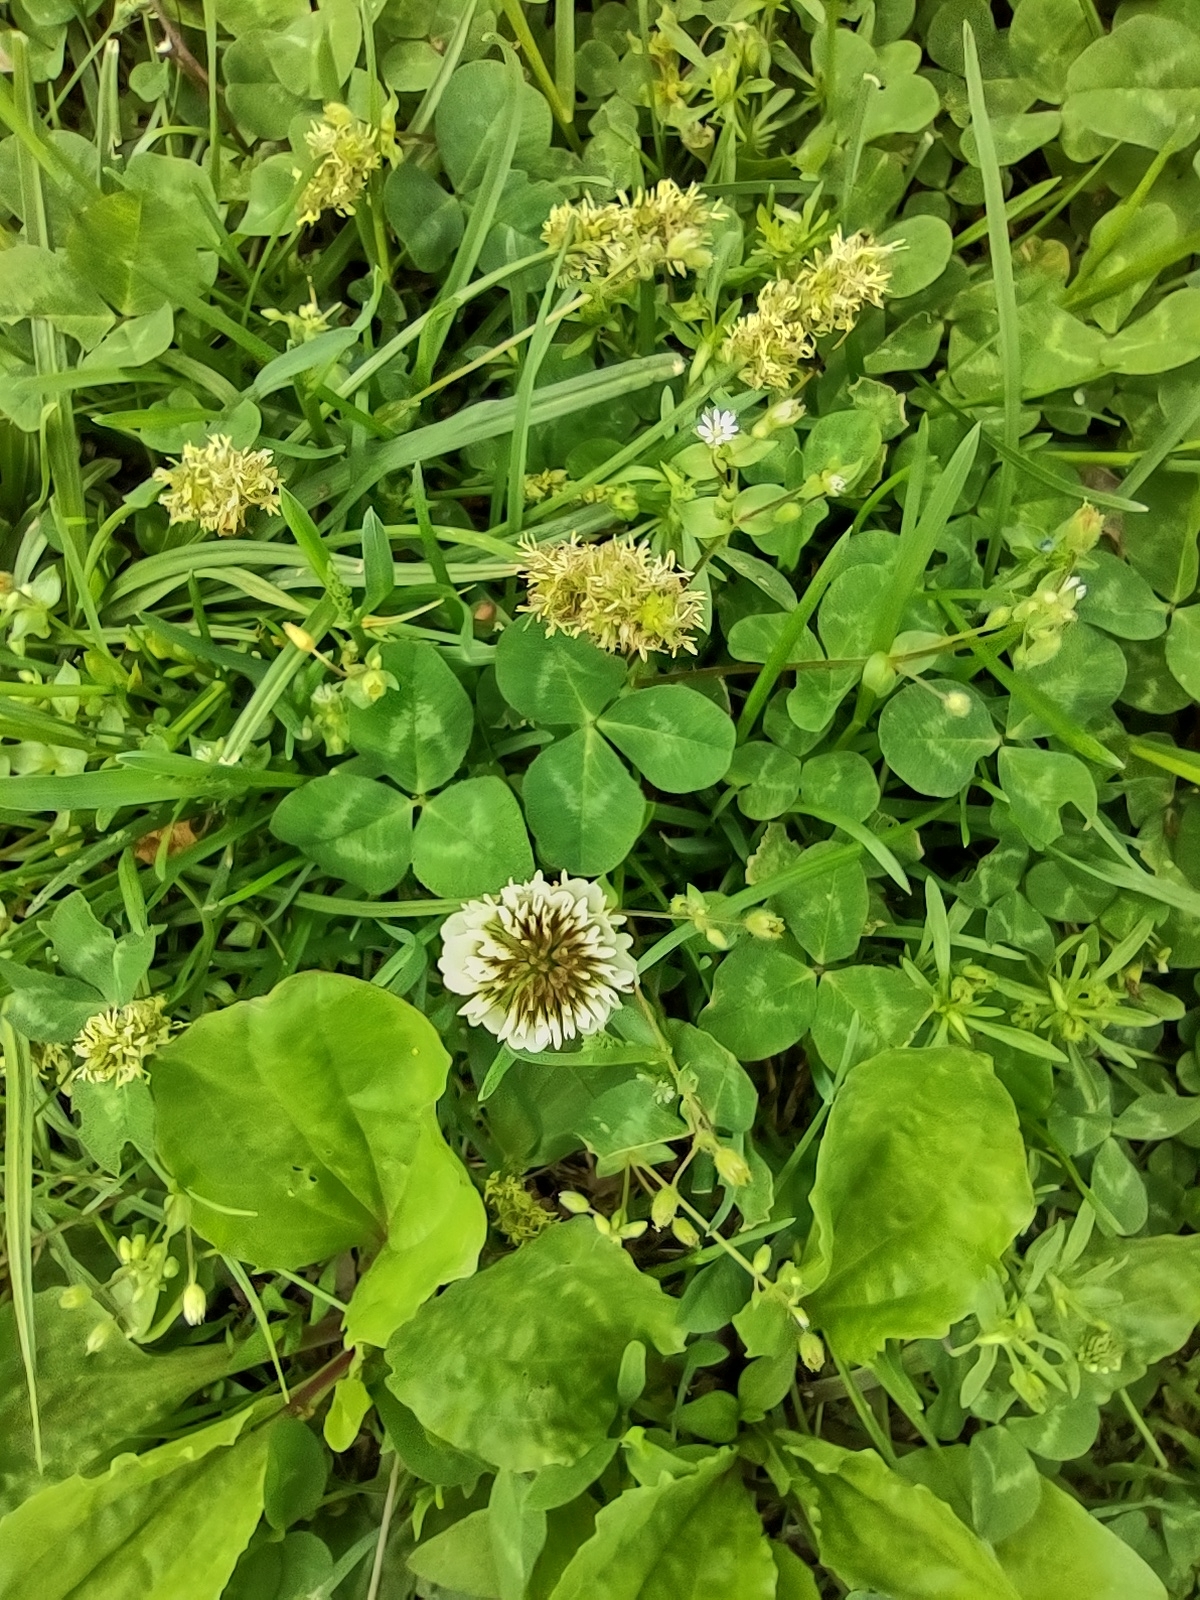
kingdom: Plantae
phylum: Tracheophyta
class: Magnoliopsida
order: Fabales
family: Fabaceae
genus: Trifolium
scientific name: Trifolium repens
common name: White clover
